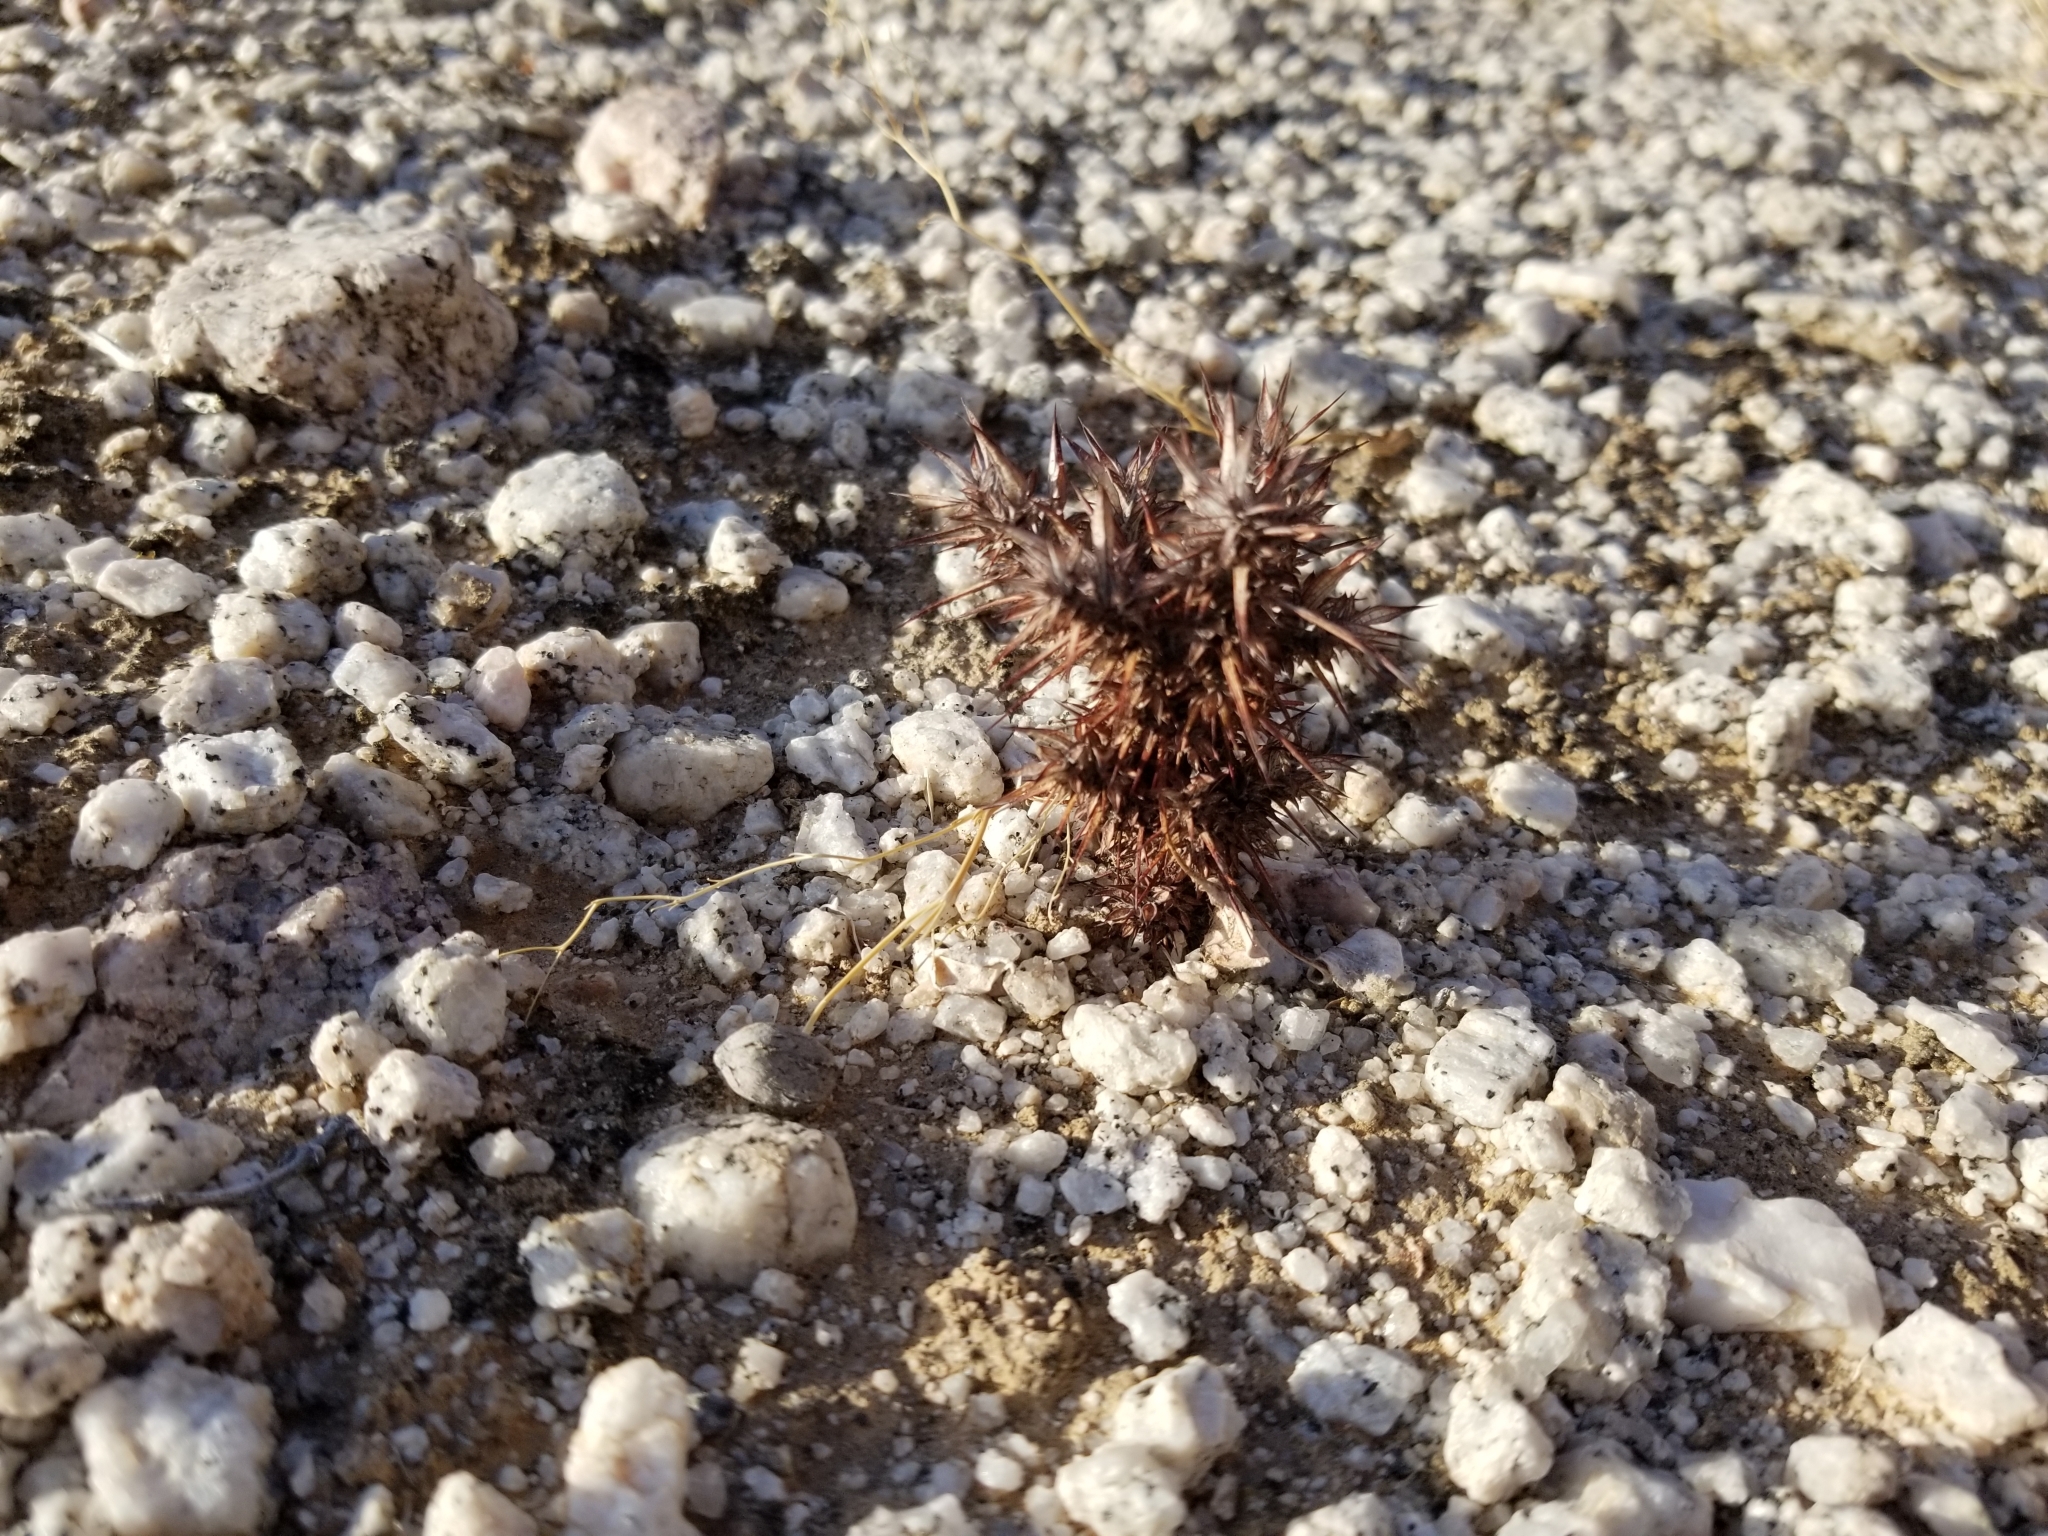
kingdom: Plantae
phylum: Tracheophyta
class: Magnoliopsida
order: Caryophyllales
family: Polygonaceae
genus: Chorizanthe
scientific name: Chorizanthe rigida
